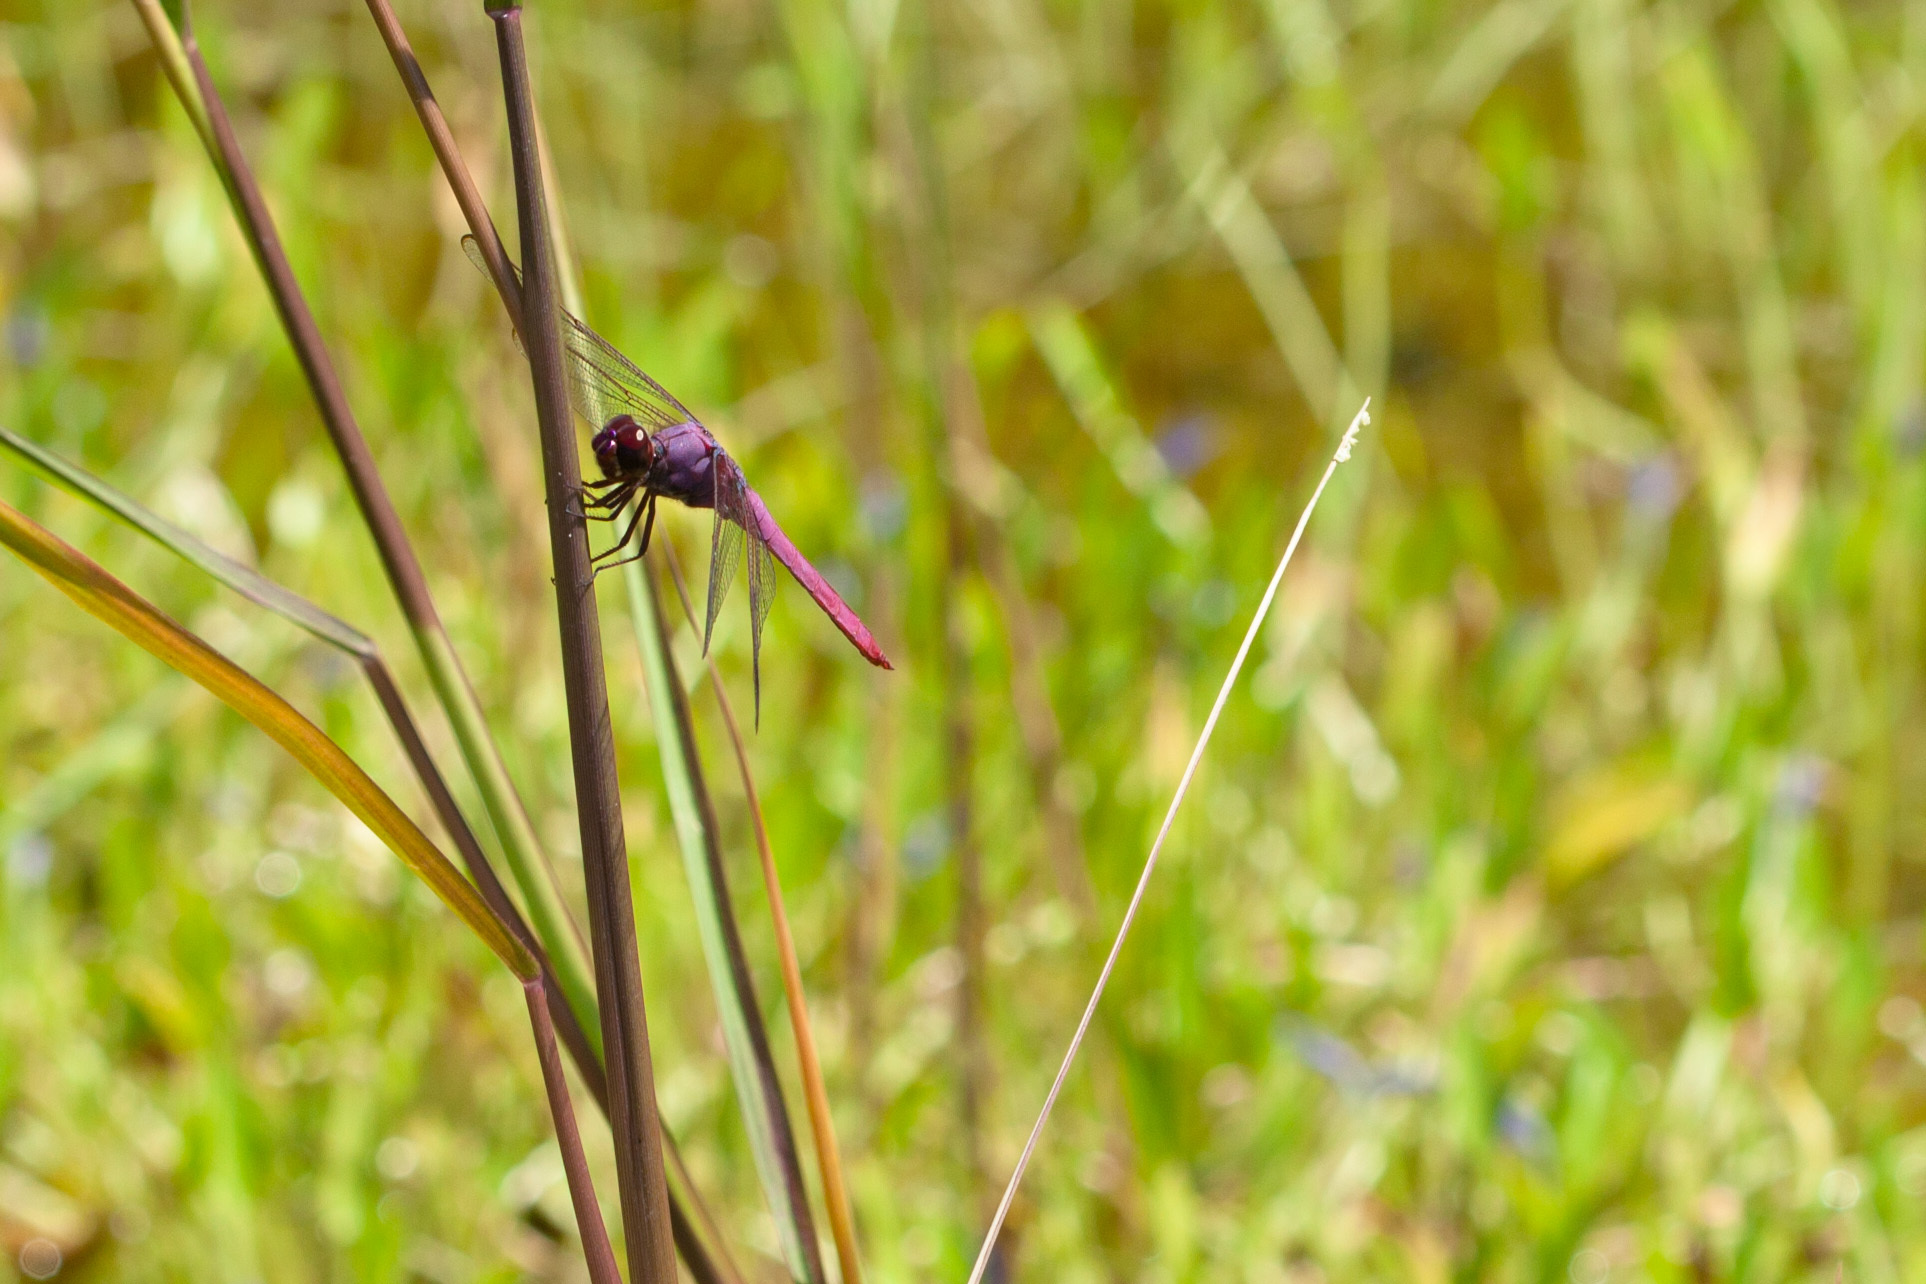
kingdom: Animalia
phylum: Arthropoda
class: Insecta
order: Odonata
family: Libellulidae
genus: Orthemis
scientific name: Orthemis ferruginea
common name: Roseate skimmer
